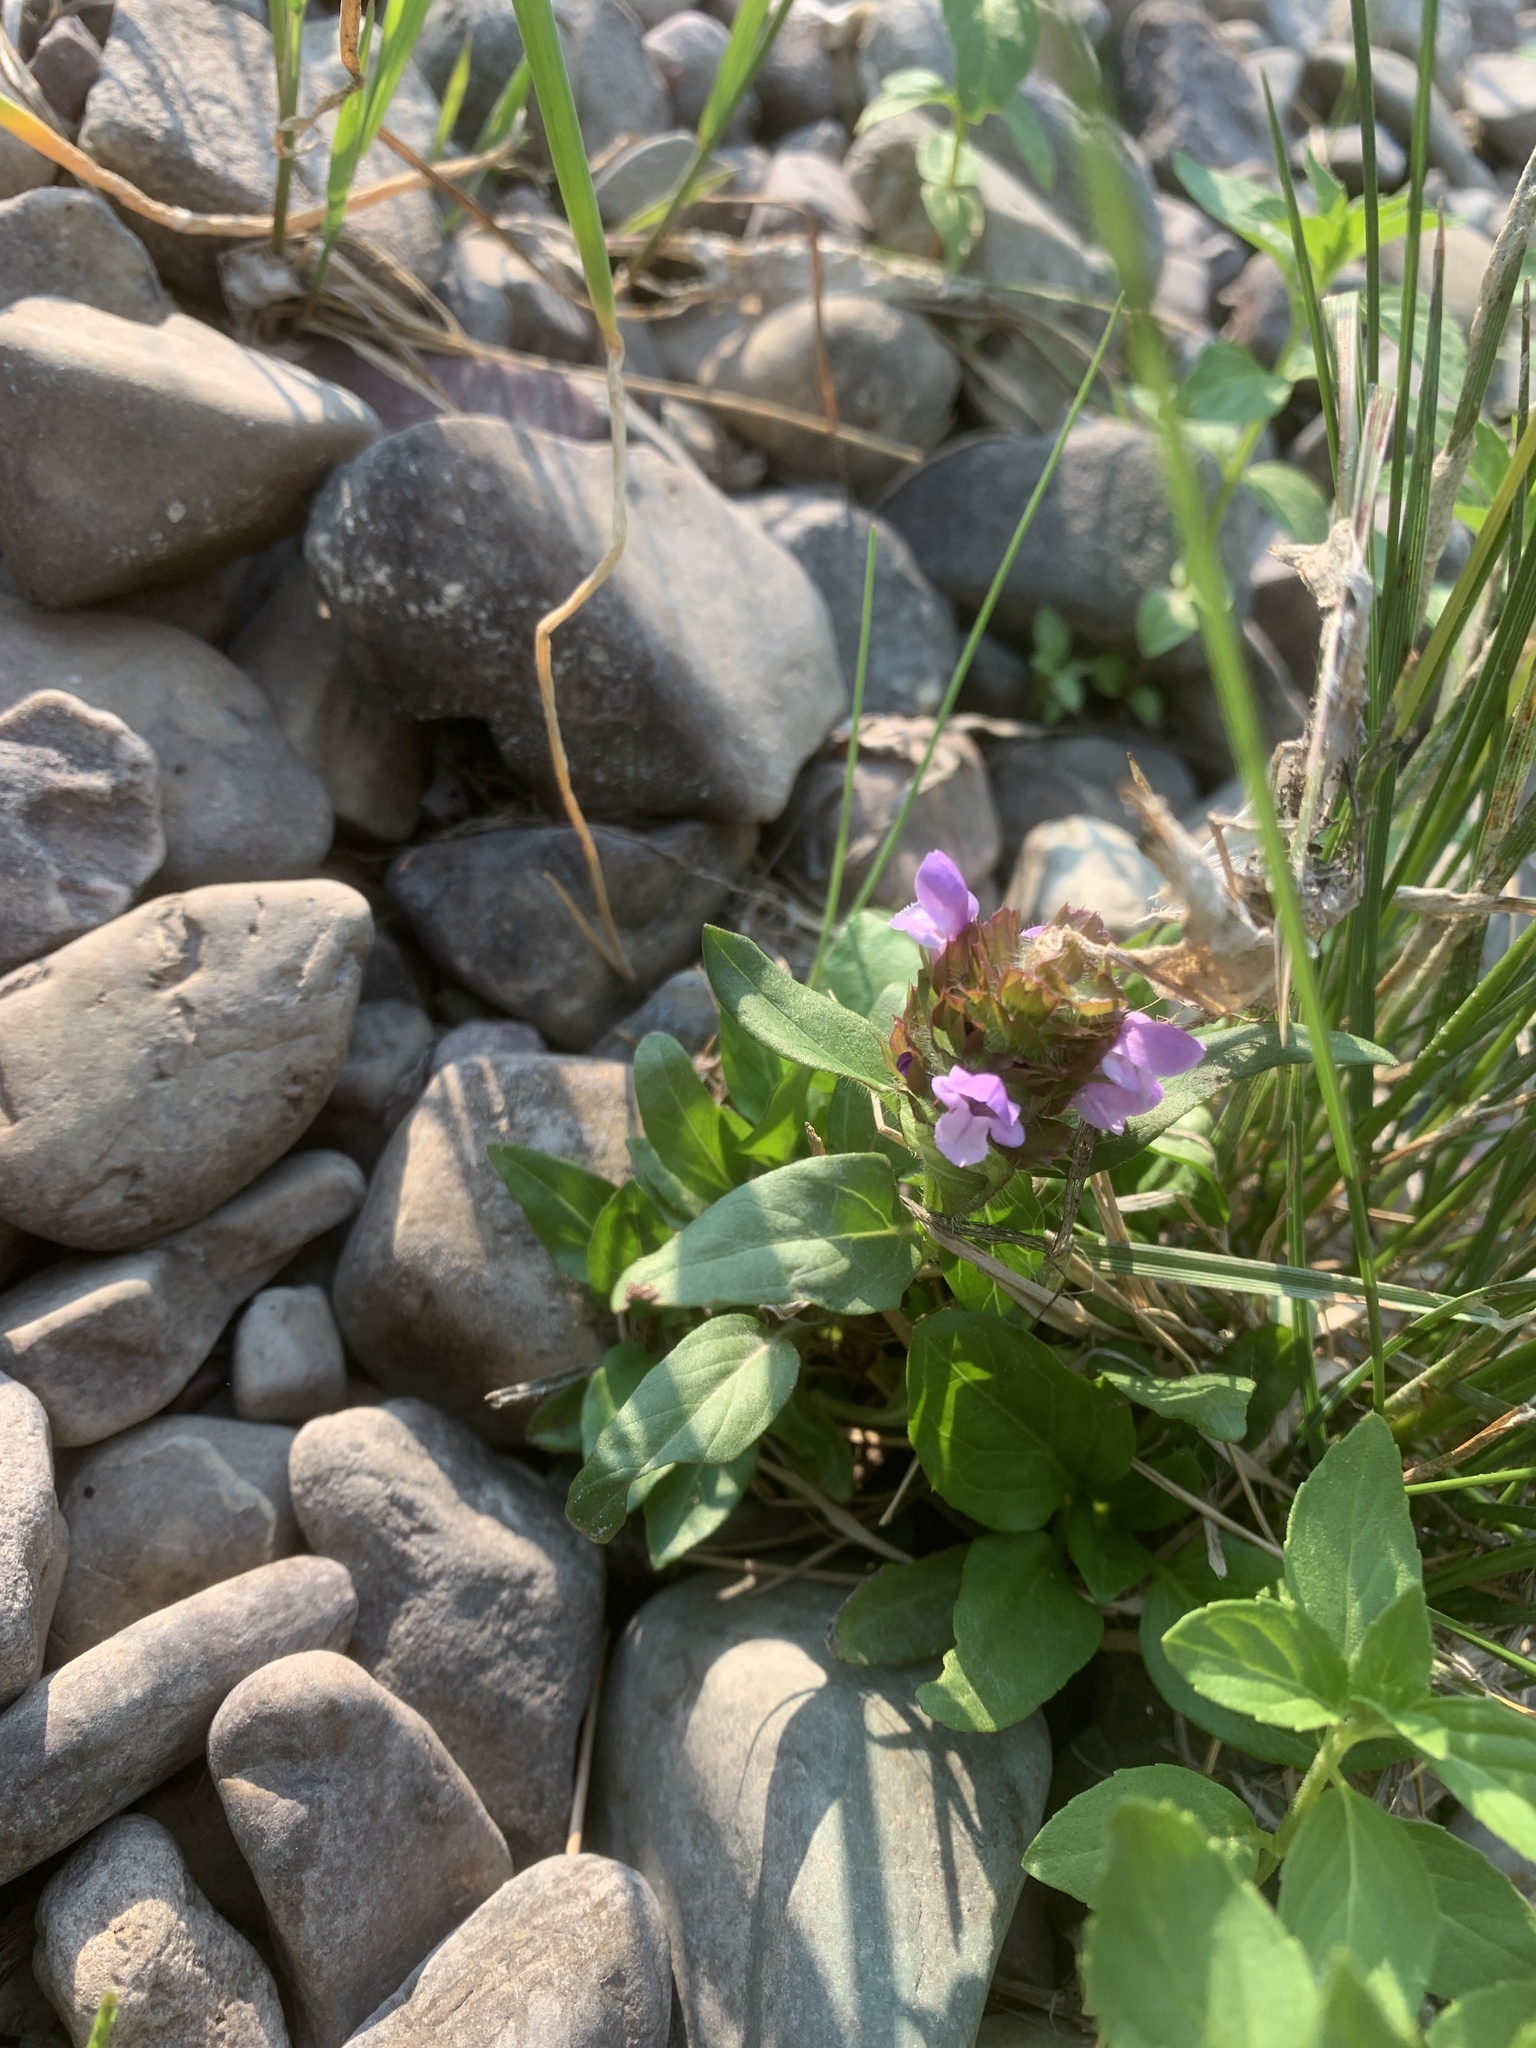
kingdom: Plantae
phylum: Tracheophyta
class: Magnoliopsida
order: Lamiales
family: Lamiaceae
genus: Prunella
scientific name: Prunella vulgaris
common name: Heal-all
